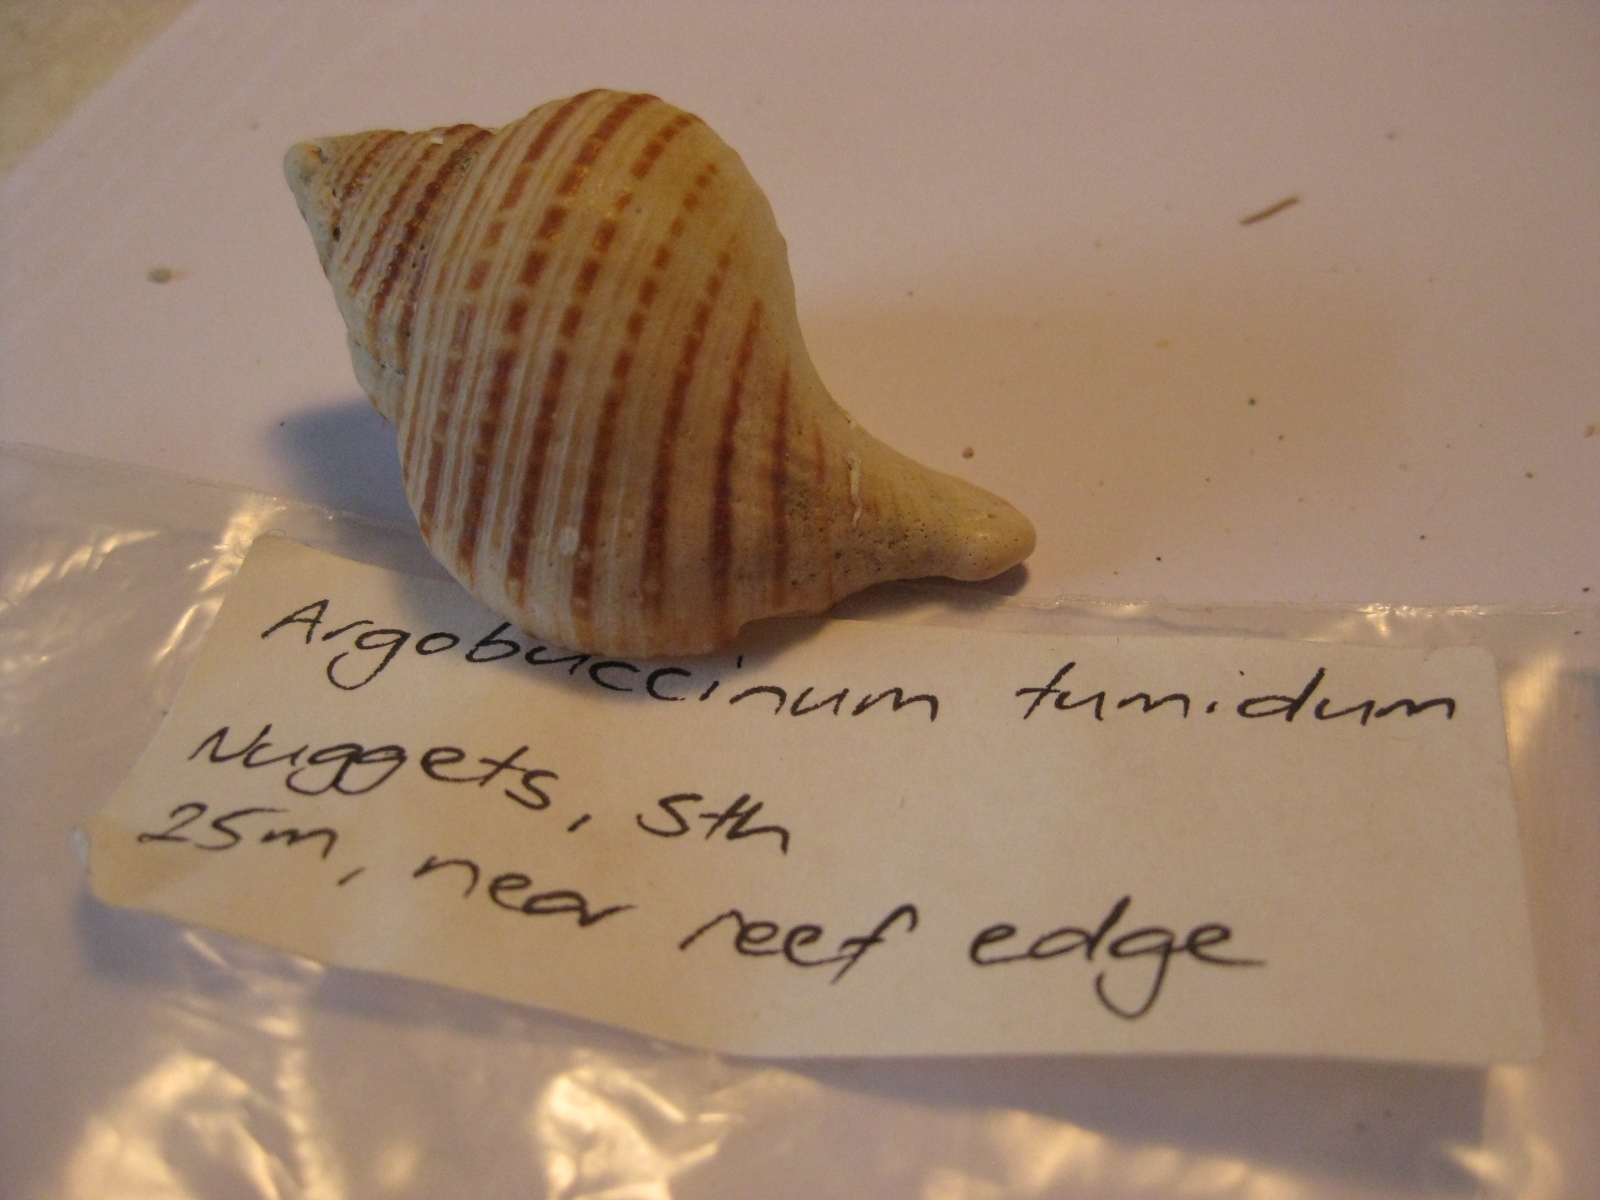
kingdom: Animalia
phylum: Mollusca
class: Gastropoda
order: Littorinimorpha
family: Cymatiidae
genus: Argobuccinum
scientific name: Argobuccinum pustulosum
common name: Pustular triton
